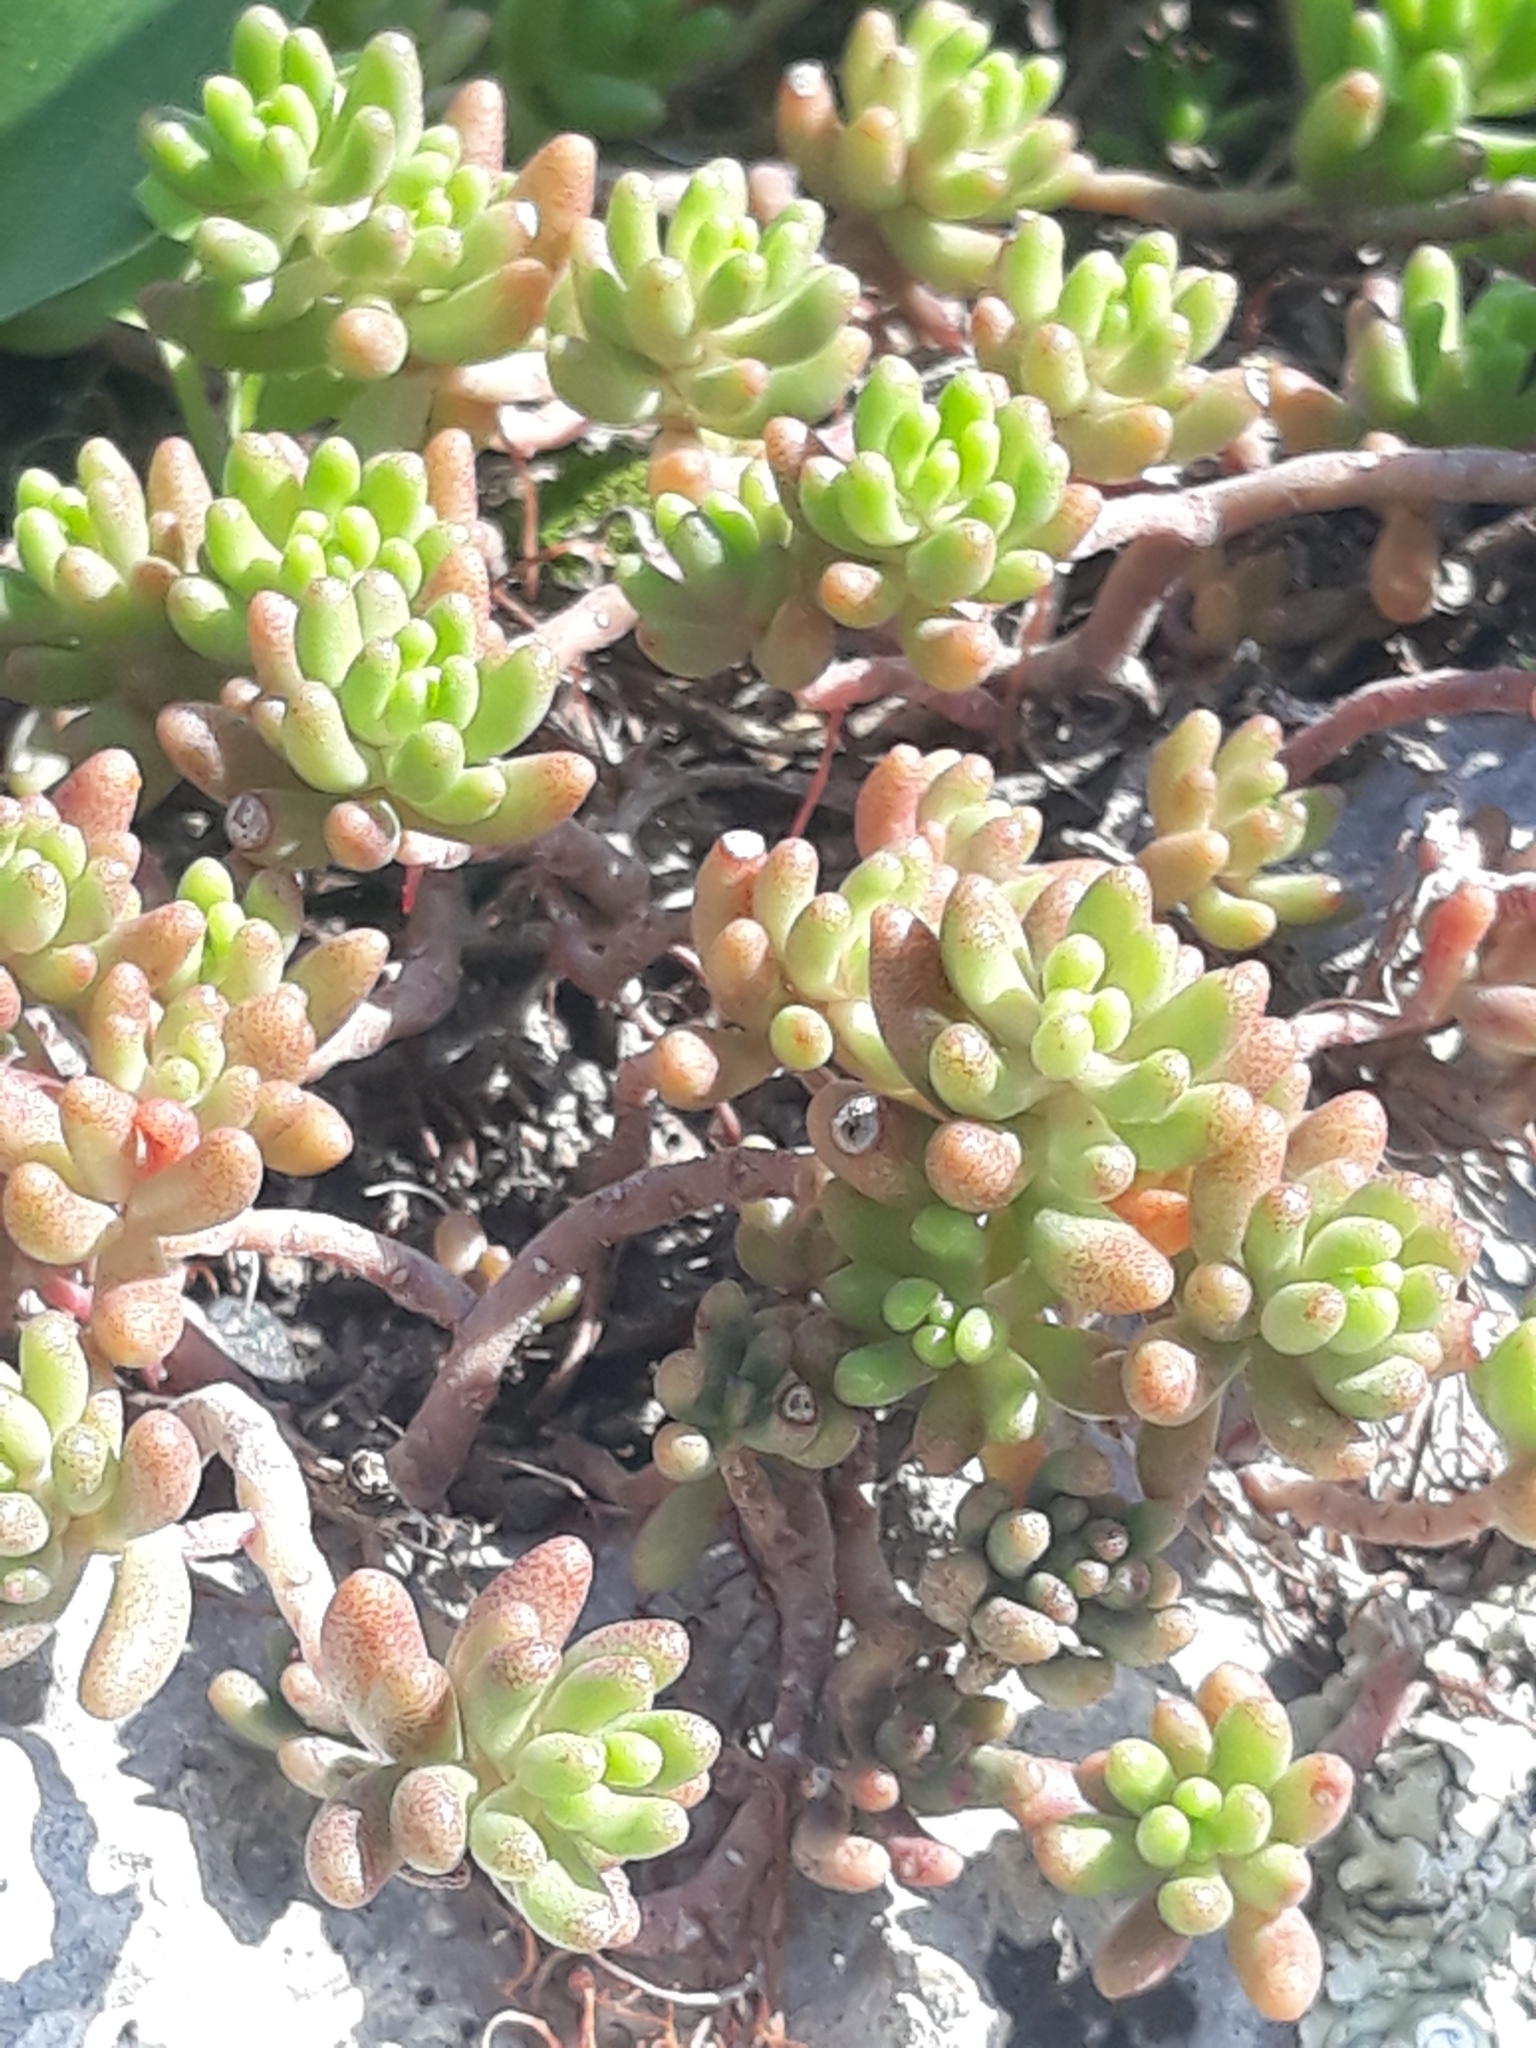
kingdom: Plantae
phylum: Tracheophyta
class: Magnoliopsida
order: Saxifragales
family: Crassulaceae
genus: Sedum
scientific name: Sedum album
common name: White stonecrop
